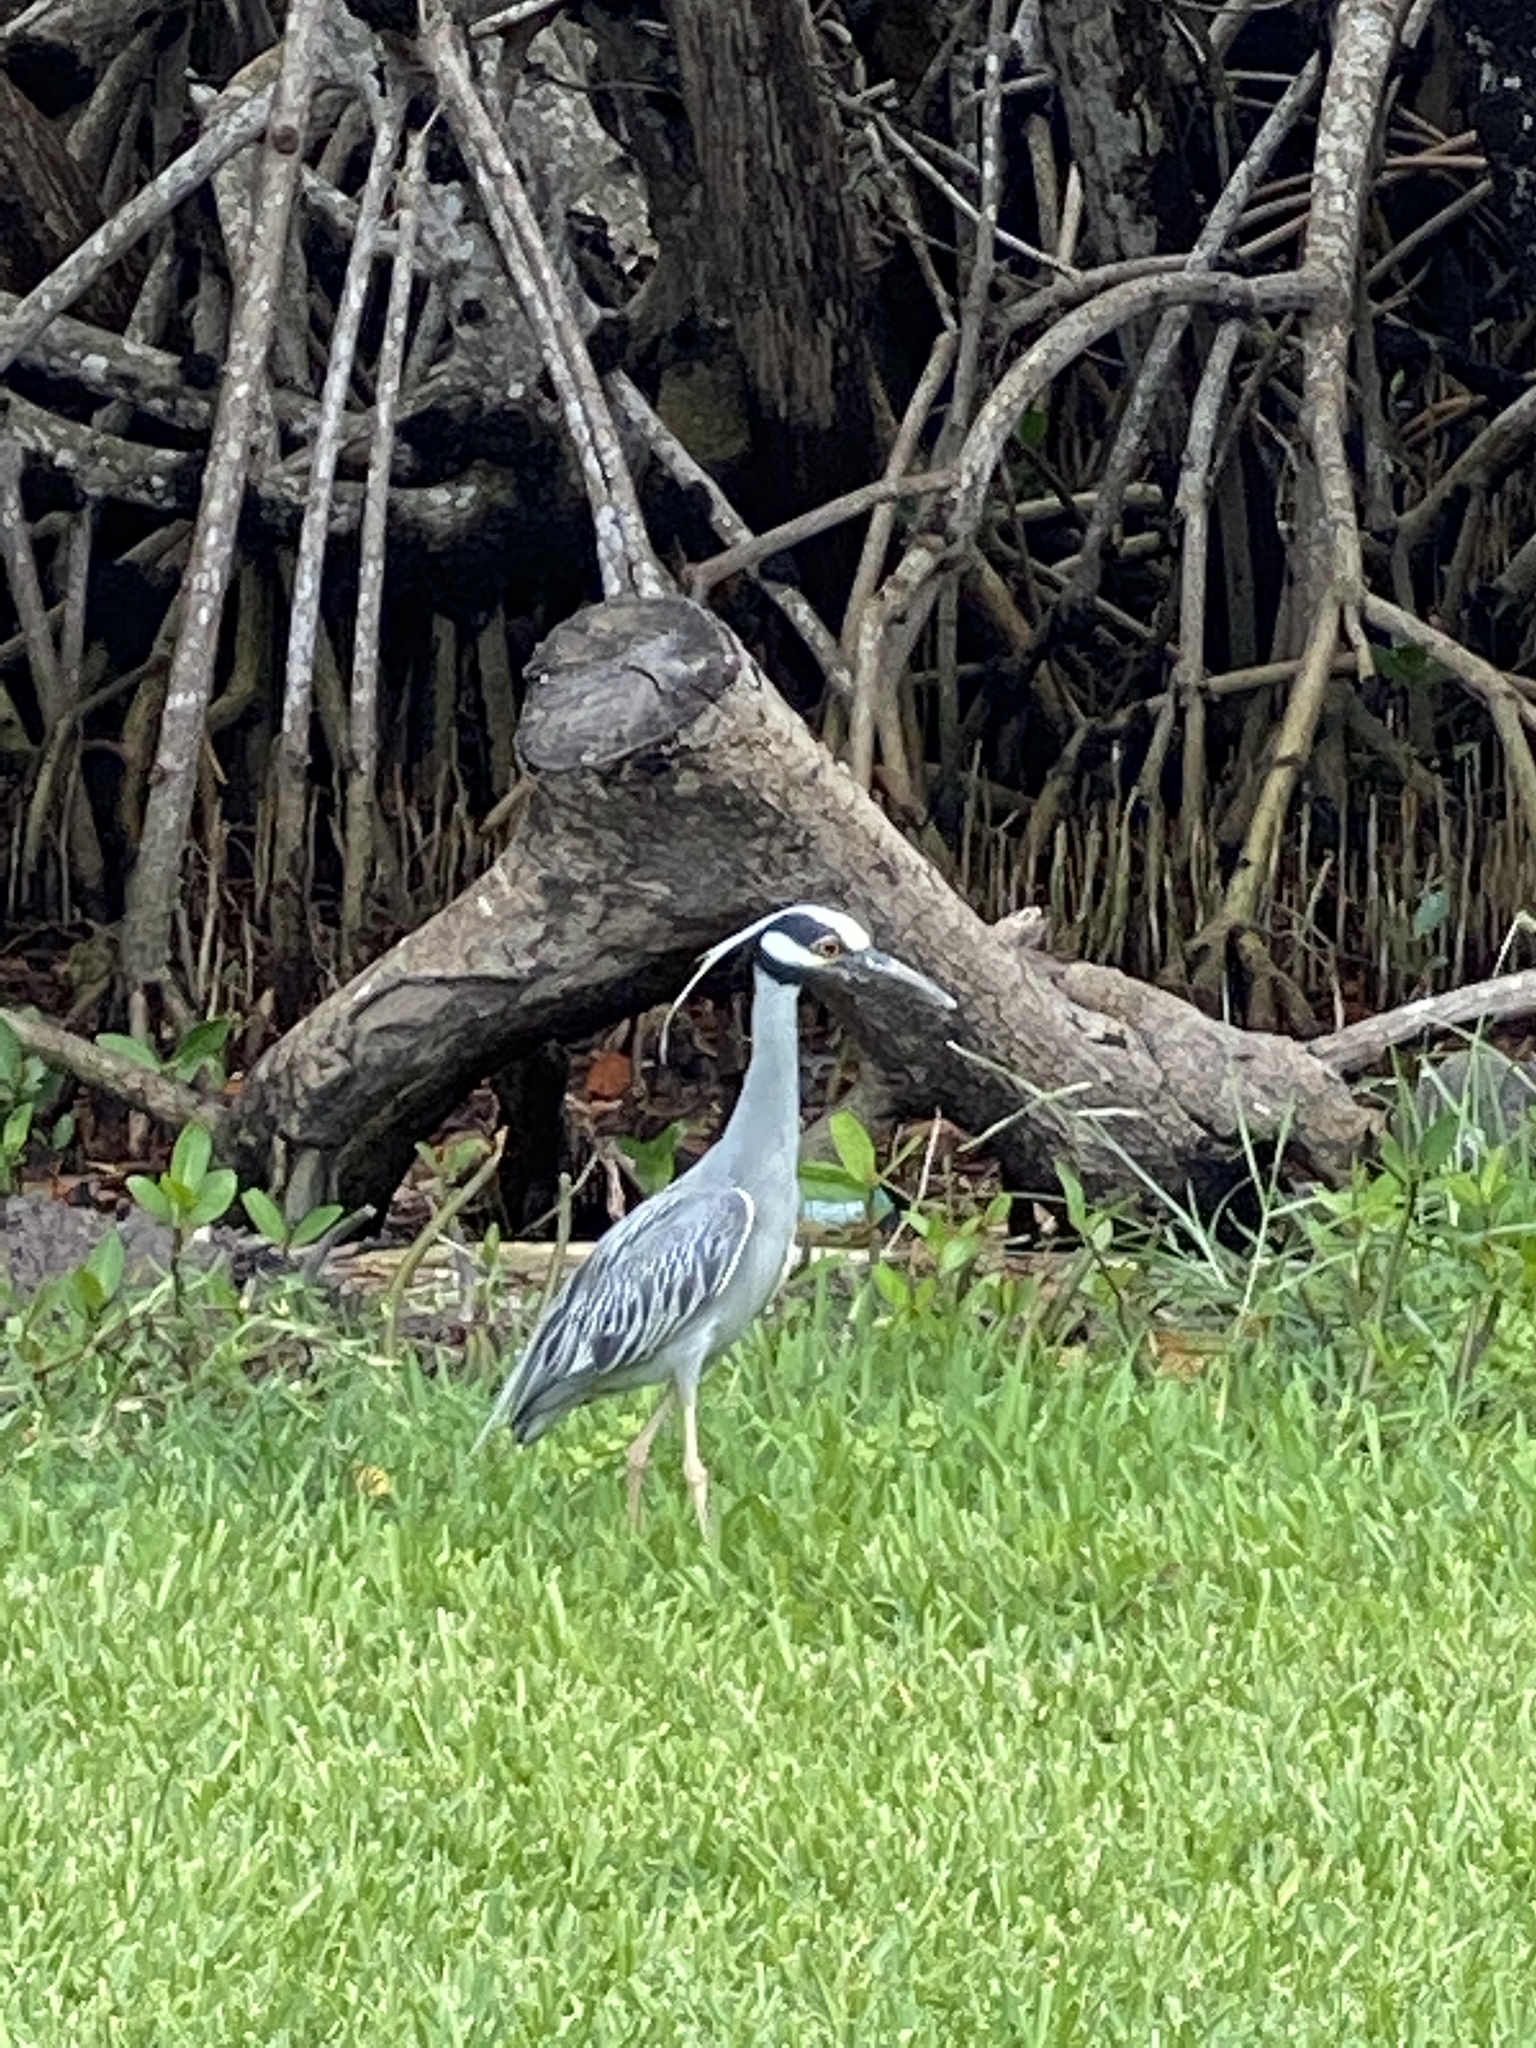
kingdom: Animalia
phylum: Chordata
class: Aves
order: Pelecaniformes
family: Ardeidae
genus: Nyctanassa
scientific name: Nyctanassa violacea
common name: Yellow-crowned night heron
